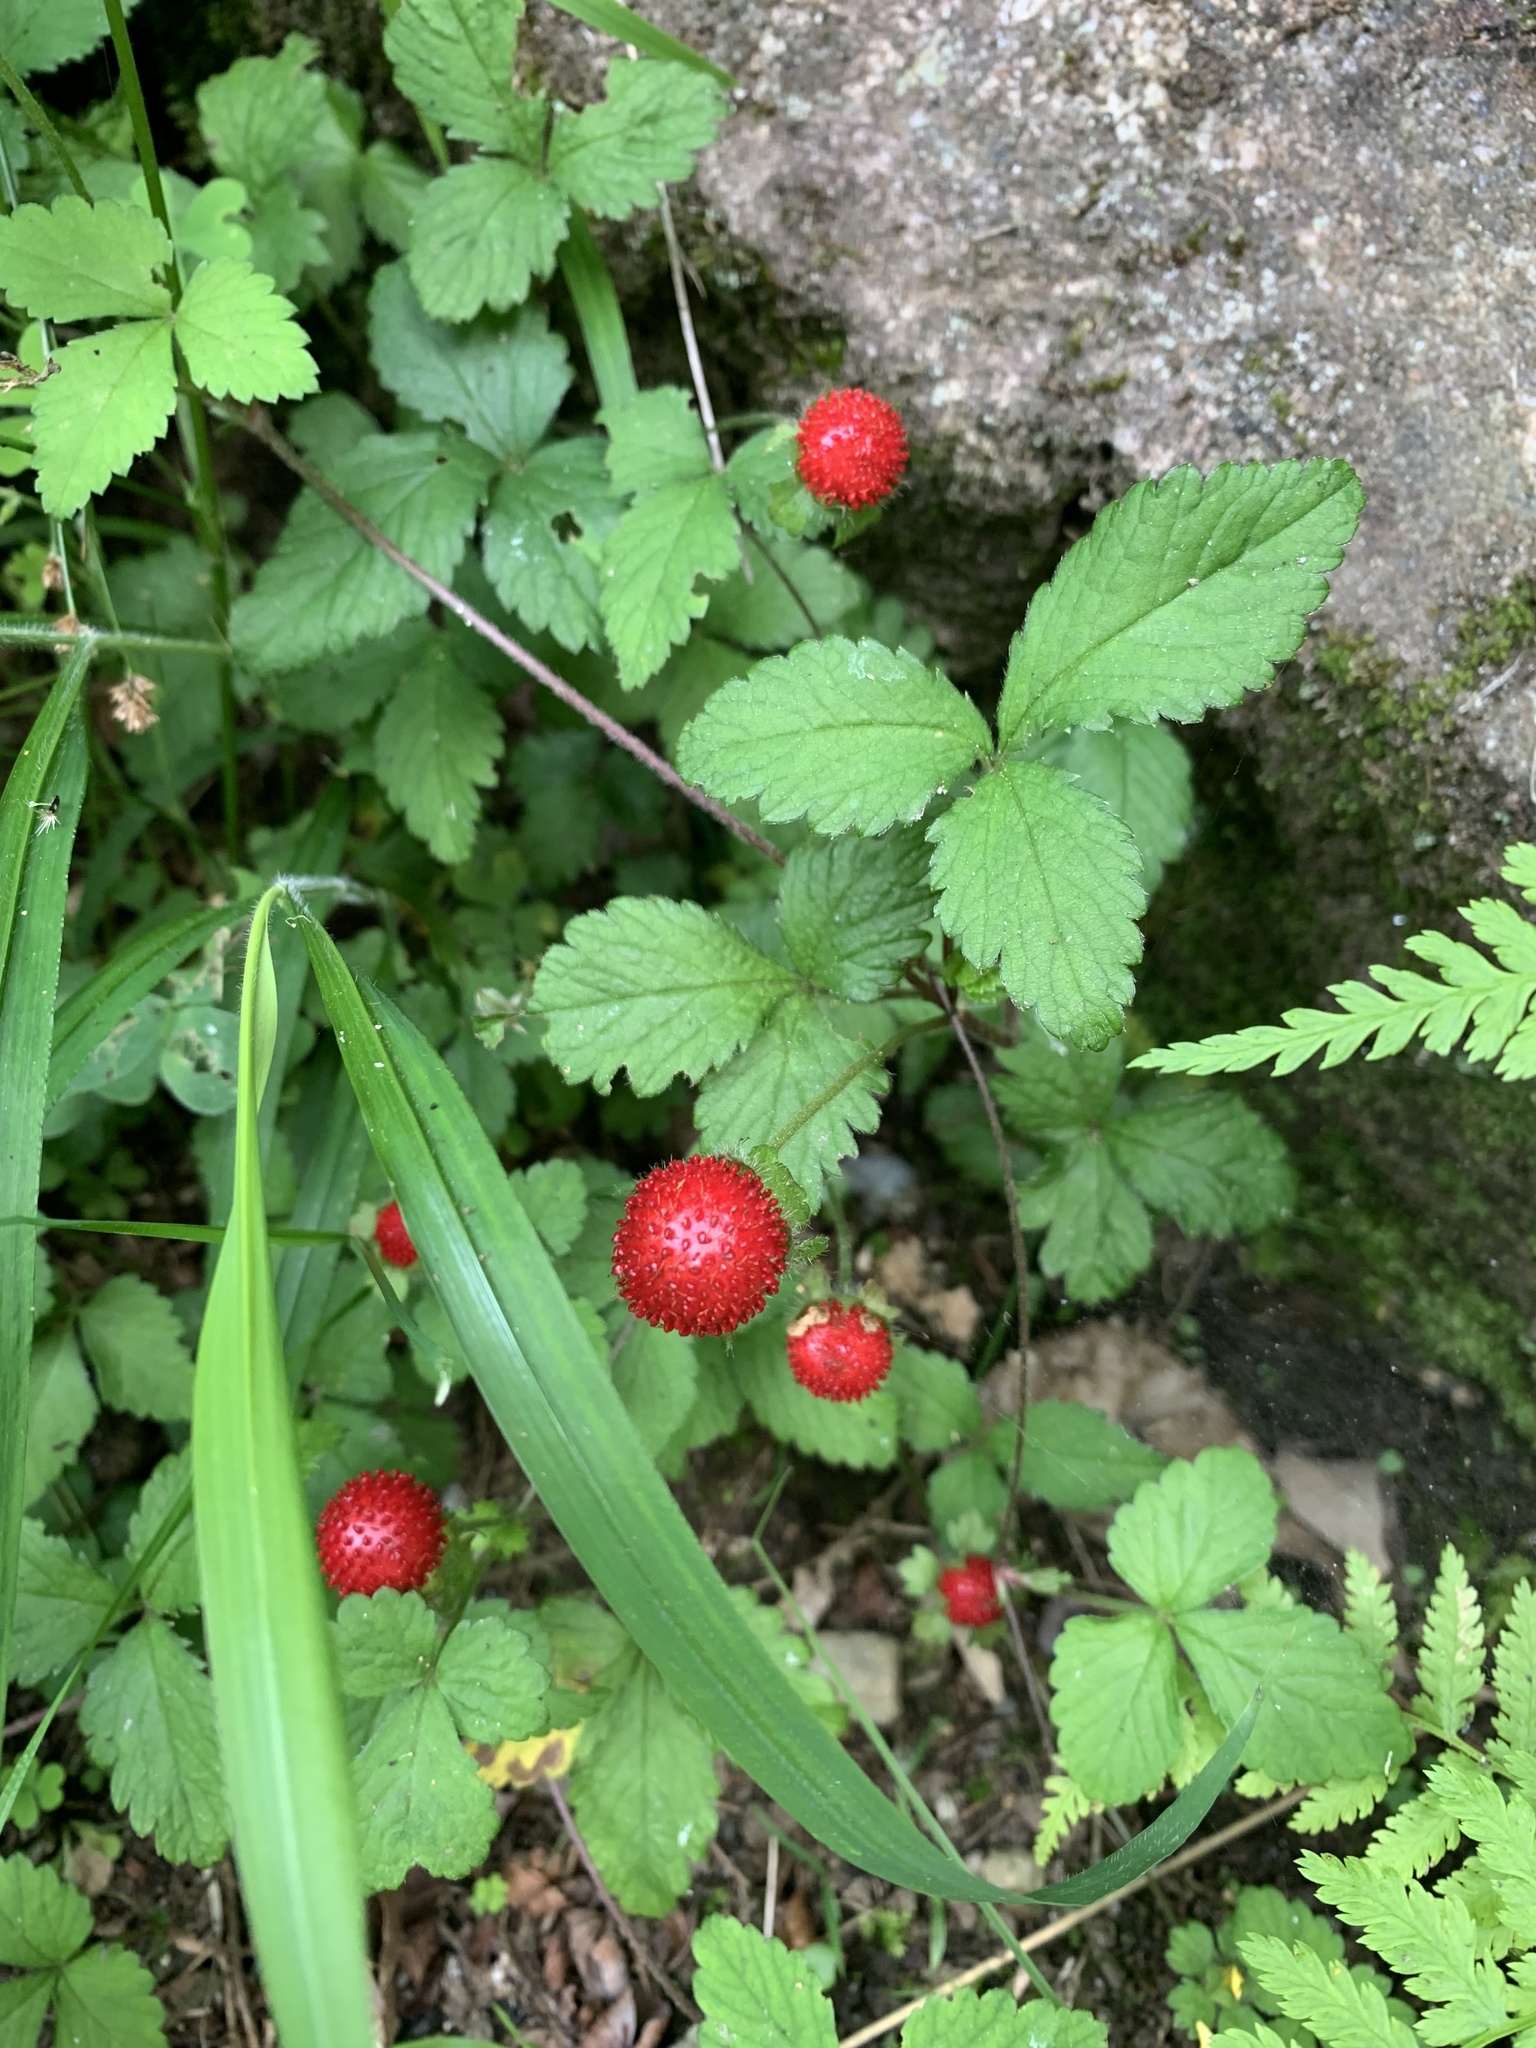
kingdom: Plantae
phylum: Tracheophyta
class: Magnoliopsida
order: Rosales
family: Rosaceae
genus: Potentilla
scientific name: Potentilla indica
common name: Yellow-flowered strawberry
